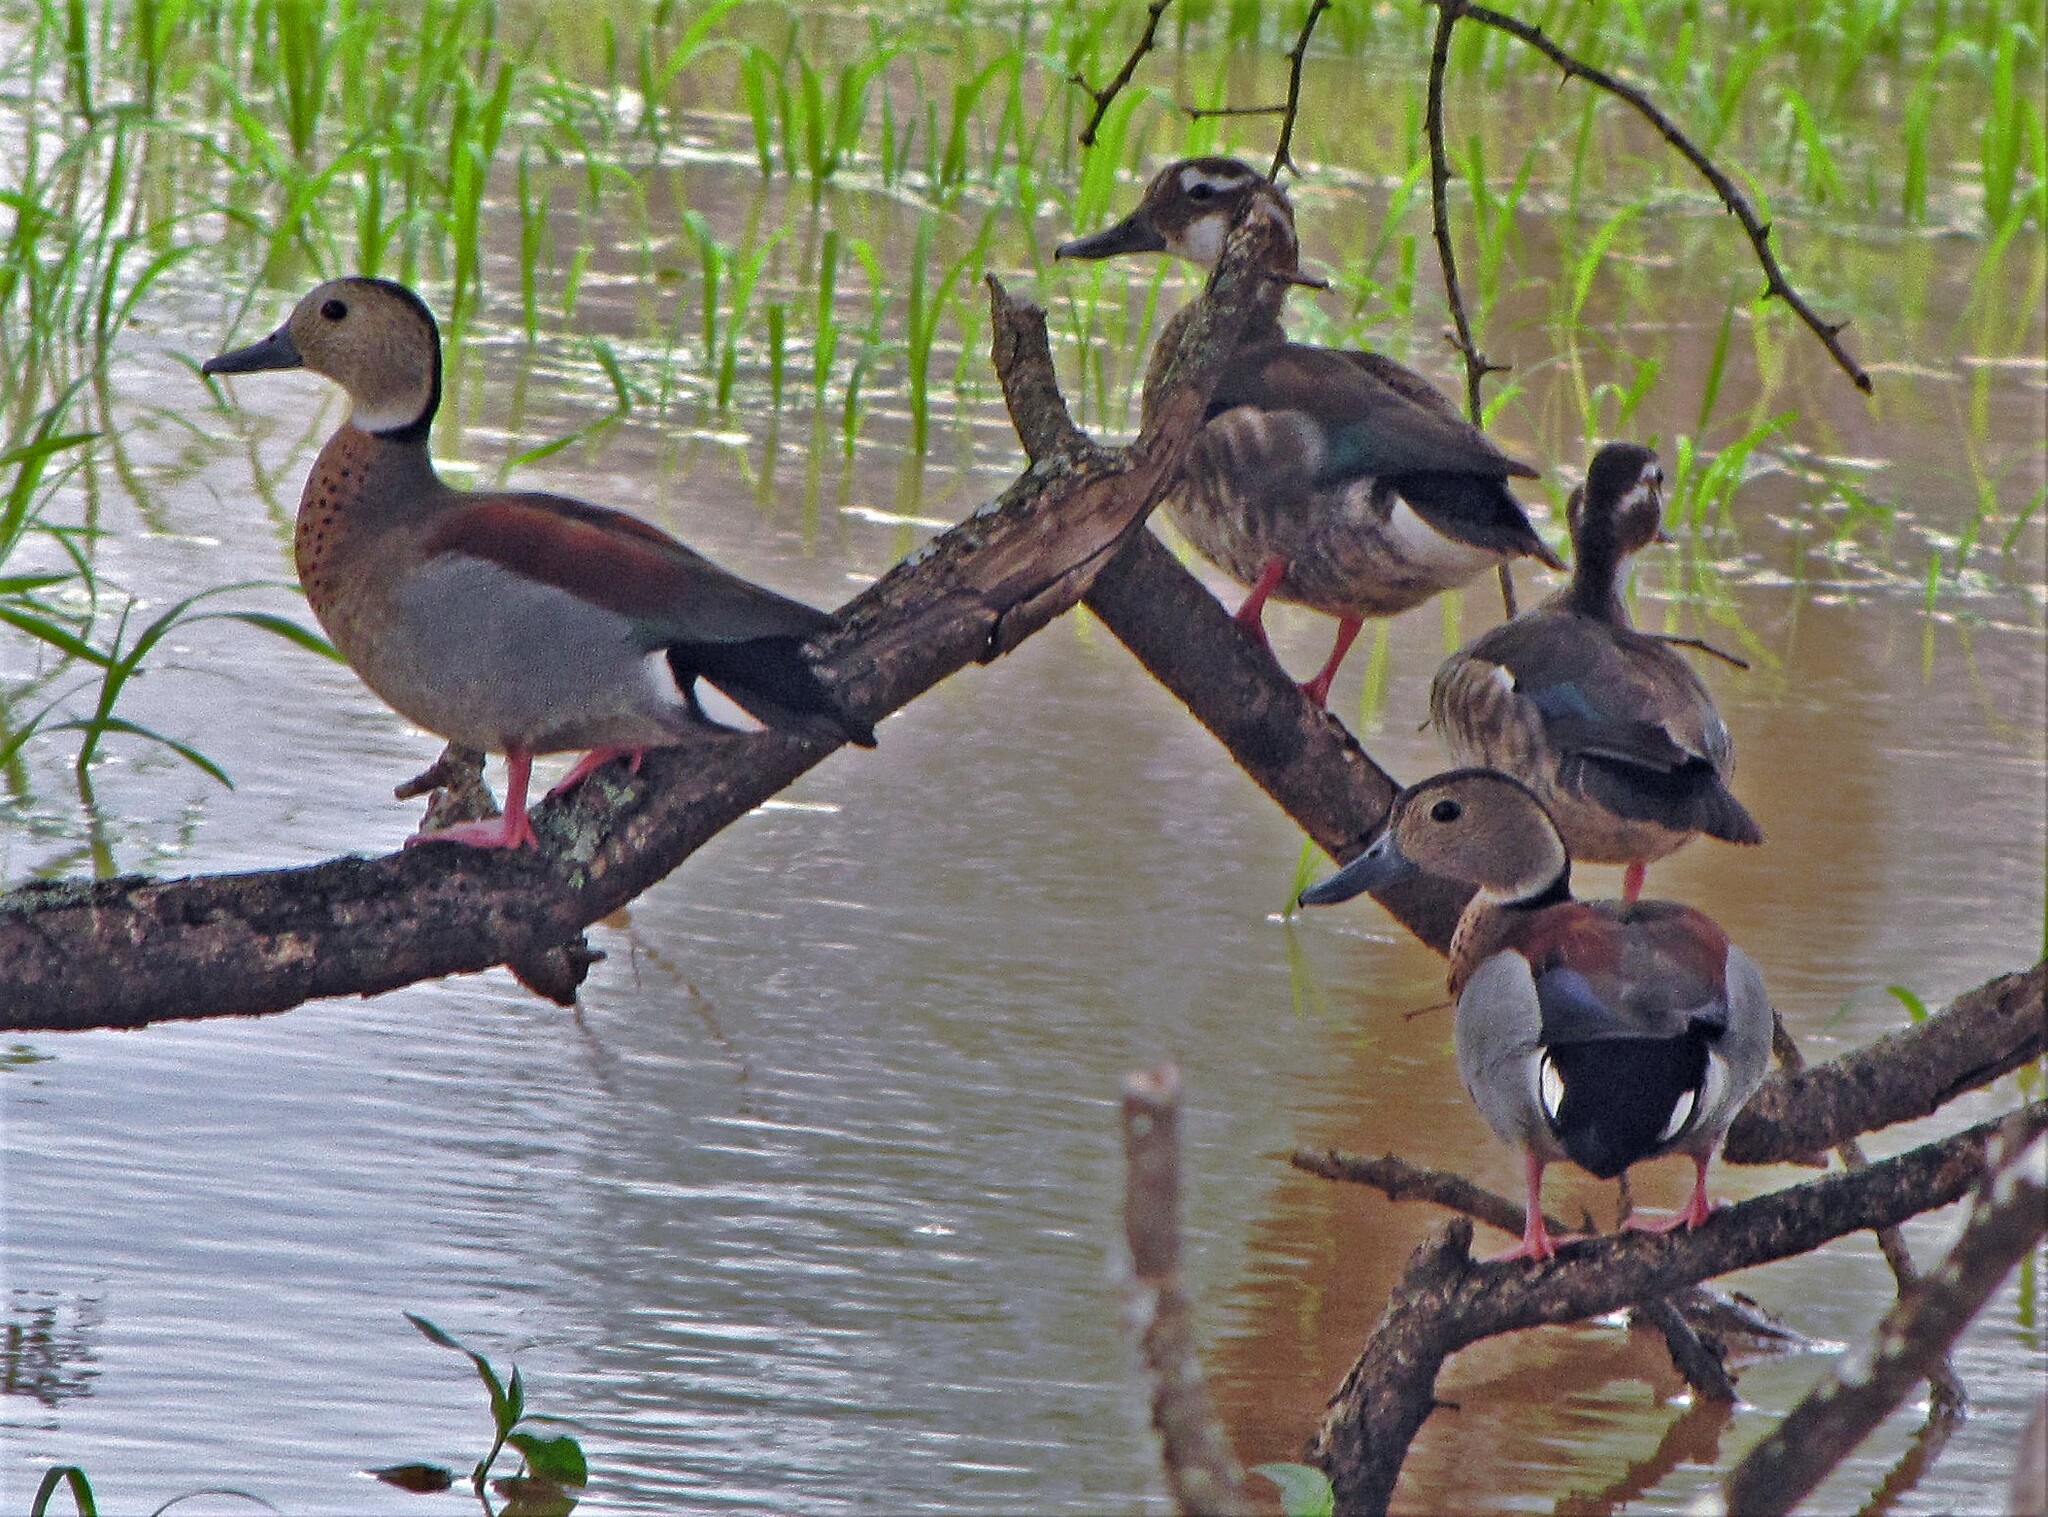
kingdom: Animalia
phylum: Chordata
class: Aves
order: Anseriformes
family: Anatidae
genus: Callonetta
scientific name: Callonetta leucophrys
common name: Ringed teal
